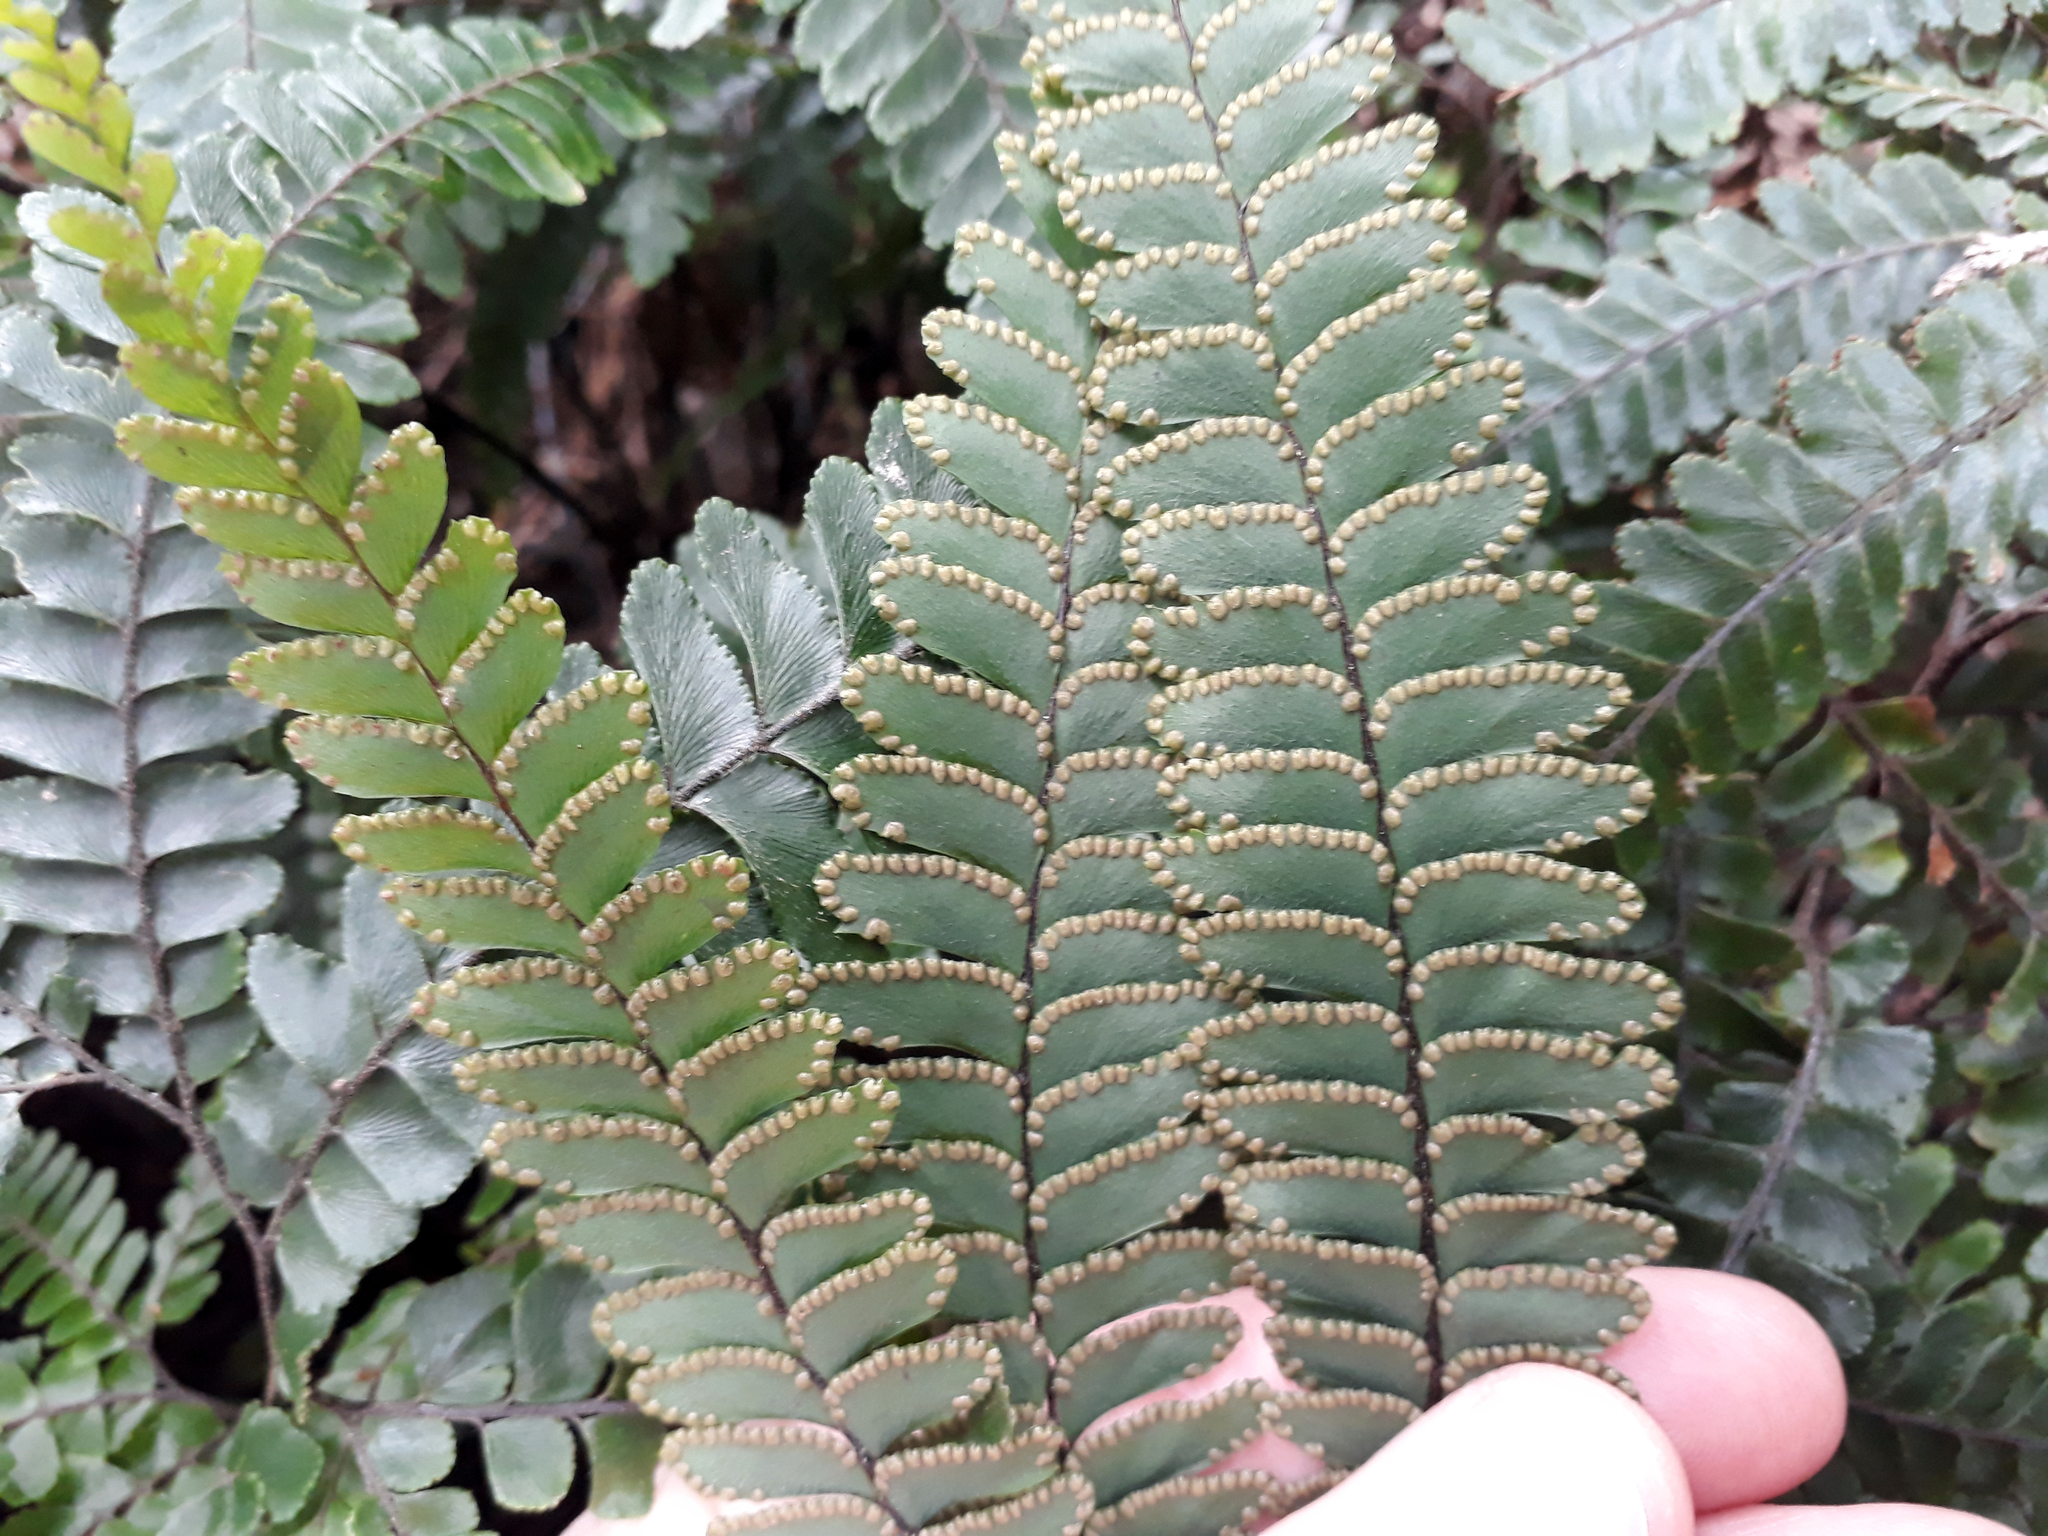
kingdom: Plantae
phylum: Tracheophyta
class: Polypodiopsida
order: Polypodiales
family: Pteridaceae
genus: Adiantum
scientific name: Adiantum hispidulum
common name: Rough maidenhair
